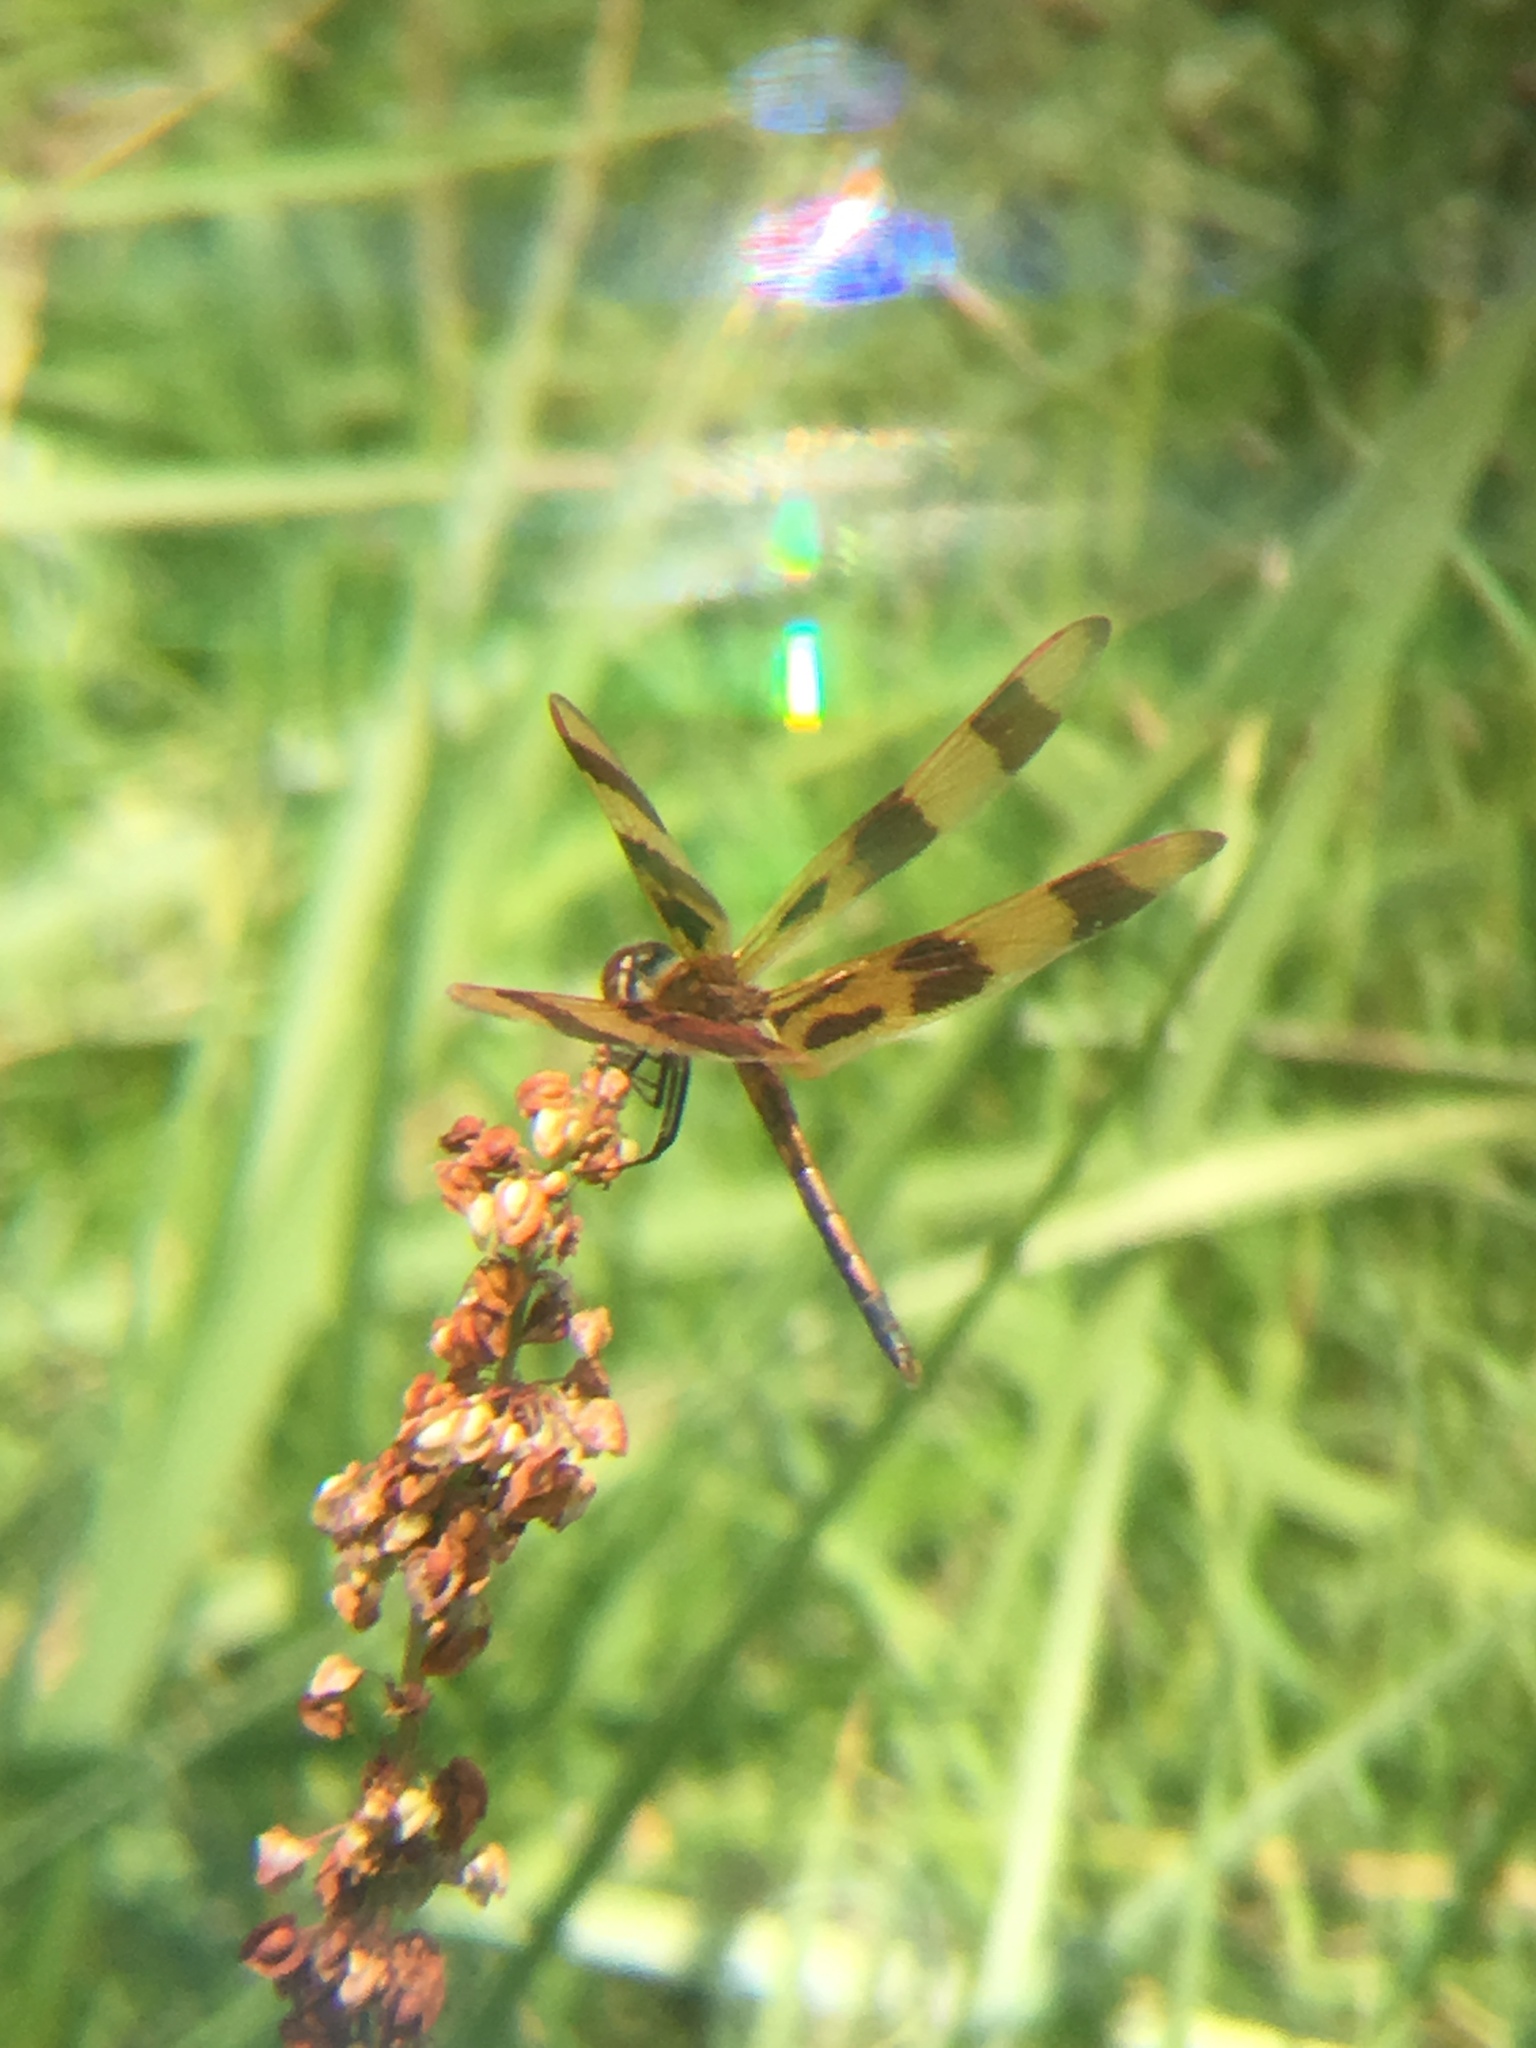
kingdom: Animalia
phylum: Arthropoda
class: Insecta
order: Odonata
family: Libellulidae
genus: Celithemis
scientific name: Celithemis eponina
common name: Halloween pennant
